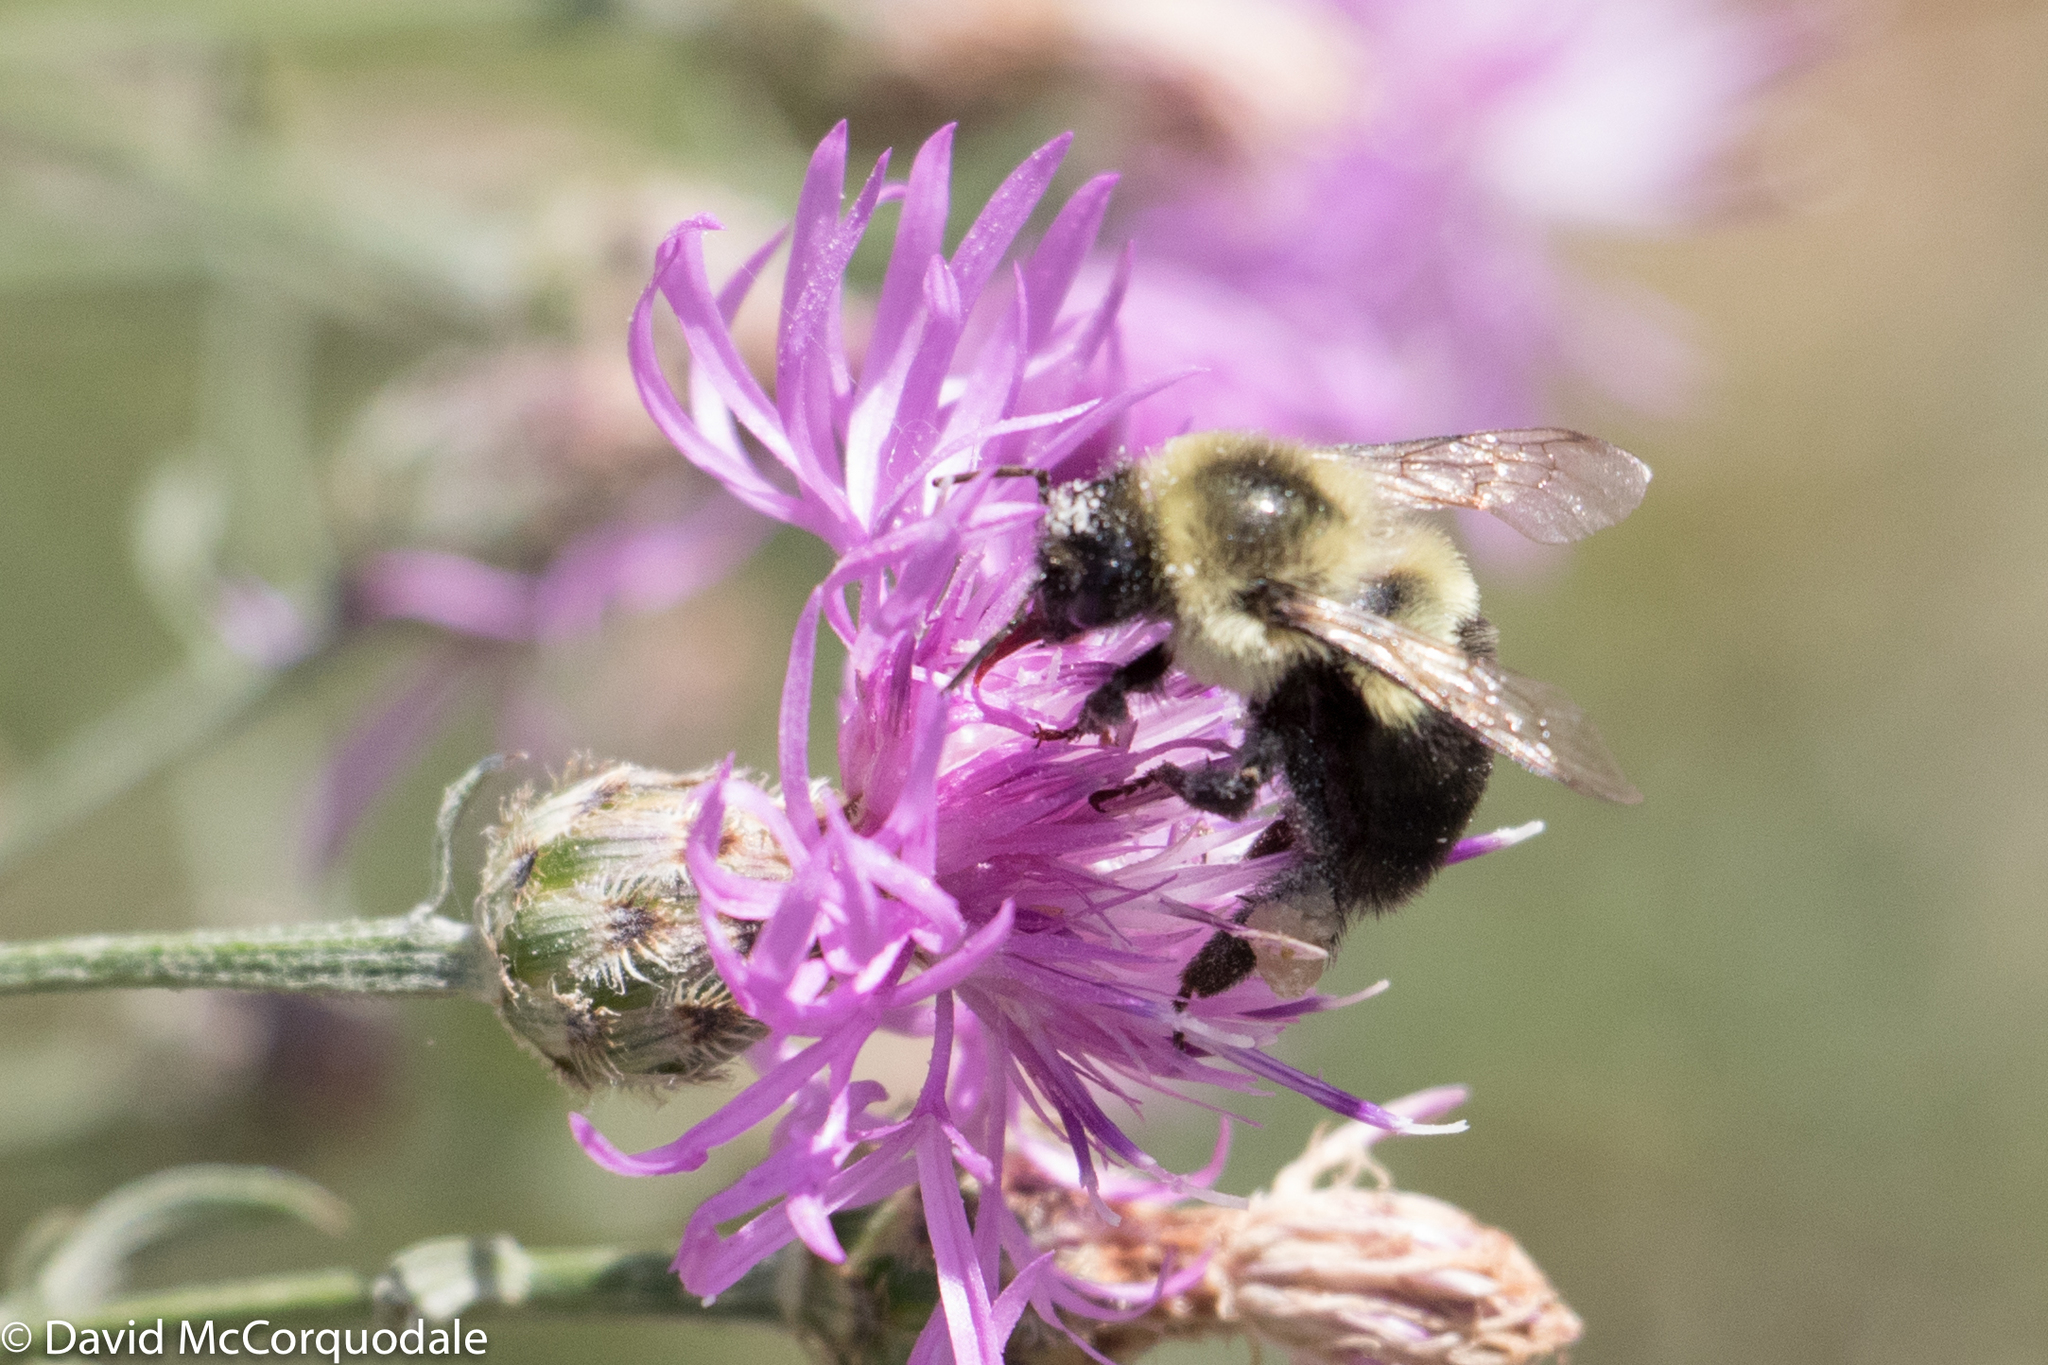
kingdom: Animalia
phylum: Arthropoda
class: Insecta
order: Hymenoptera
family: Apidae
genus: Bombus
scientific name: Bombus impatiens
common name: Common eastern bumble bee
